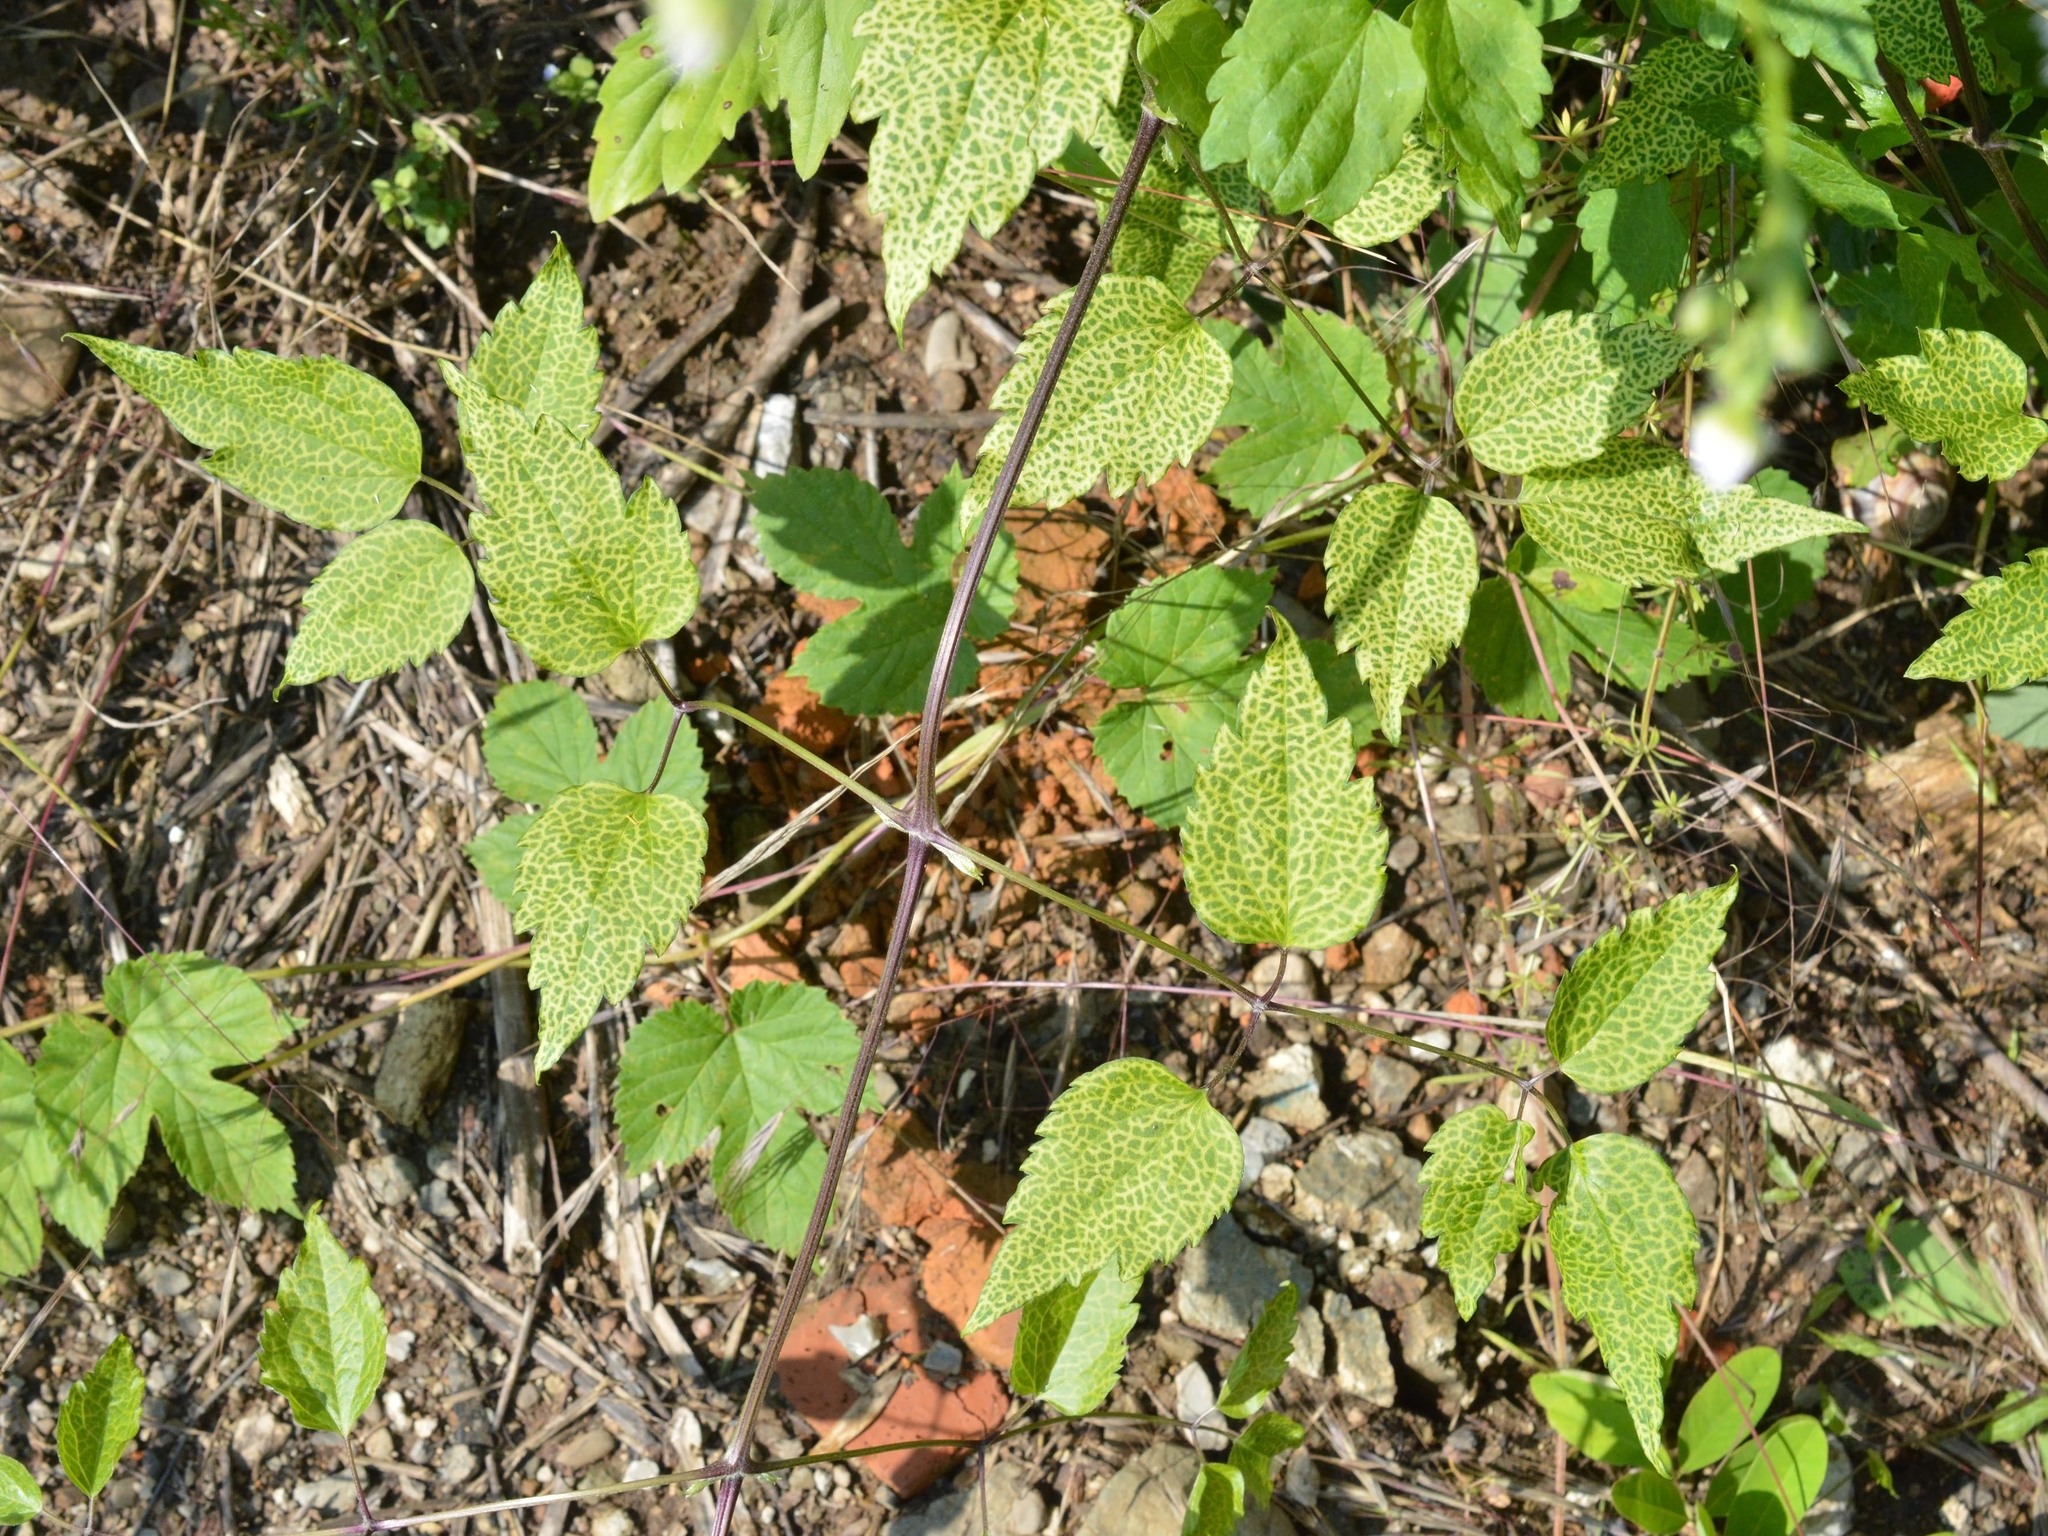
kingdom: Plantae
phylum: Tracheophyta
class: Magnoliopsida
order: Ranunculales
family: Ranunculaceae
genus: Clematis
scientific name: Clematis vitalba
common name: Evergreen clematis
